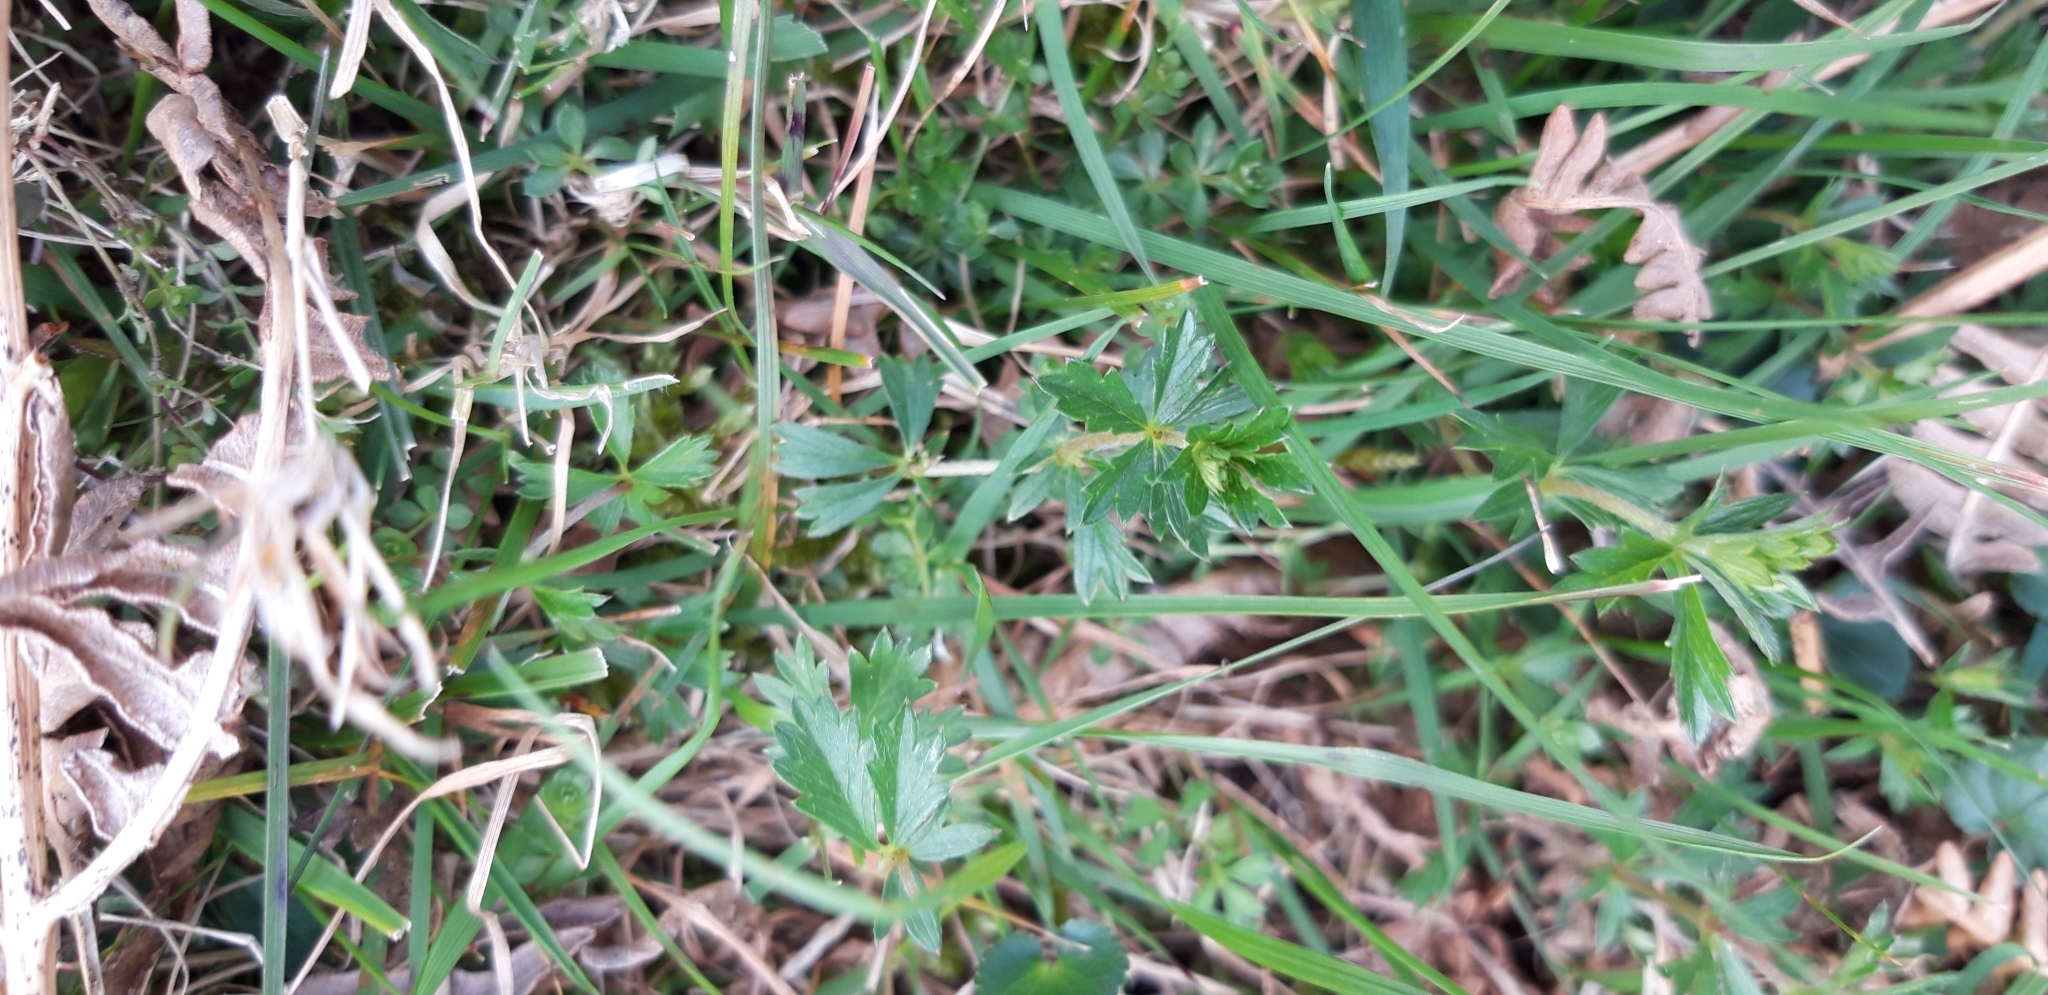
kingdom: Plantae
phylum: Tracheophyta
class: Magnoliopsida
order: Rosales
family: Rosaceae
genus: Potentilla
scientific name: Potentilla erecta
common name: Tormentil
